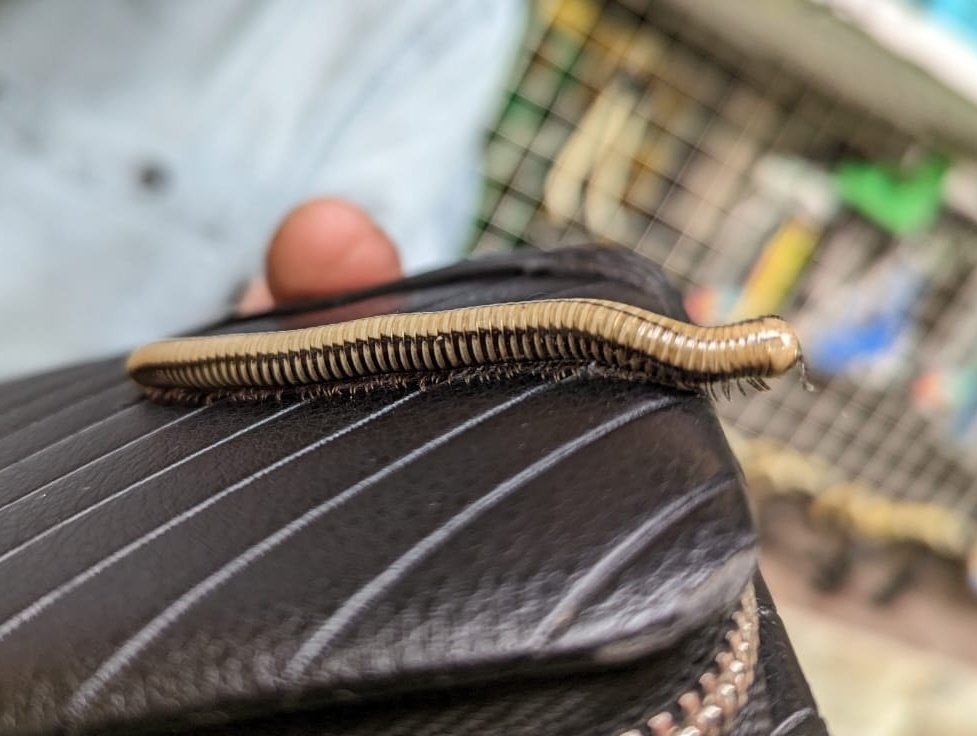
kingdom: Animalia
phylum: Arthropoda
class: Diplopoda
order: Julida
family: Julidae
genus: Pachyiulus
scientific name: Pachyiulus krivolutskyi
